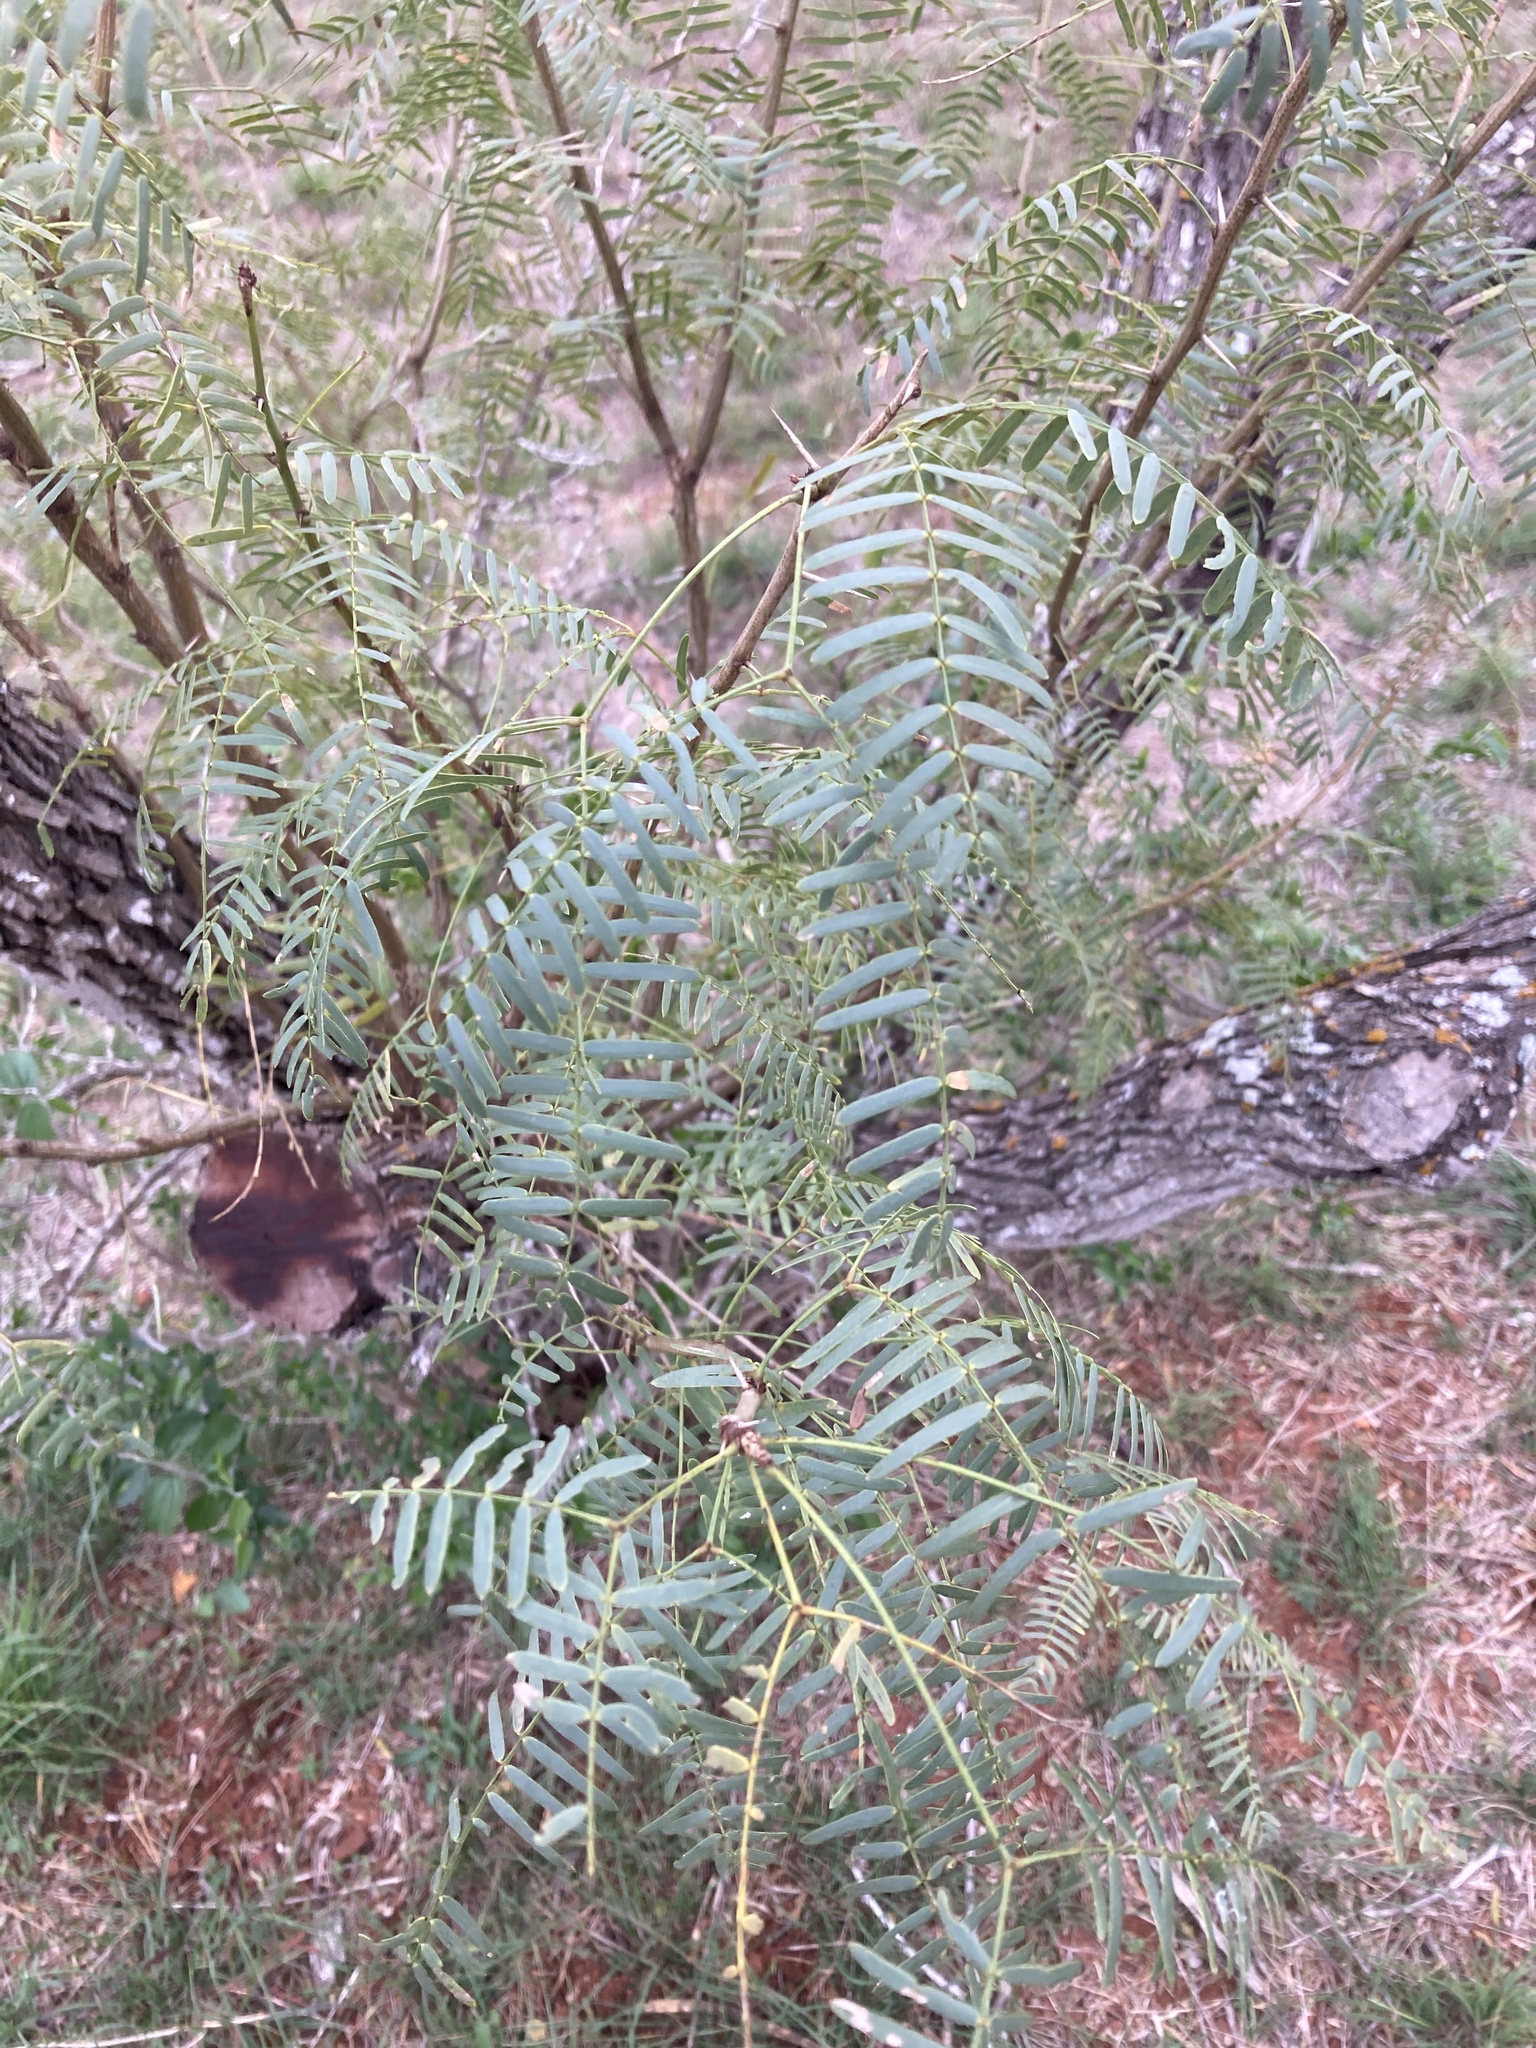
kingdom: Plantae
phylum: Tracheophyta
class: Magnoliopsida
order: Fabales
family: Fabaceae
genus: Prosopis
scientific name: Prosopis glandulosa
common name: Honey mesquite
